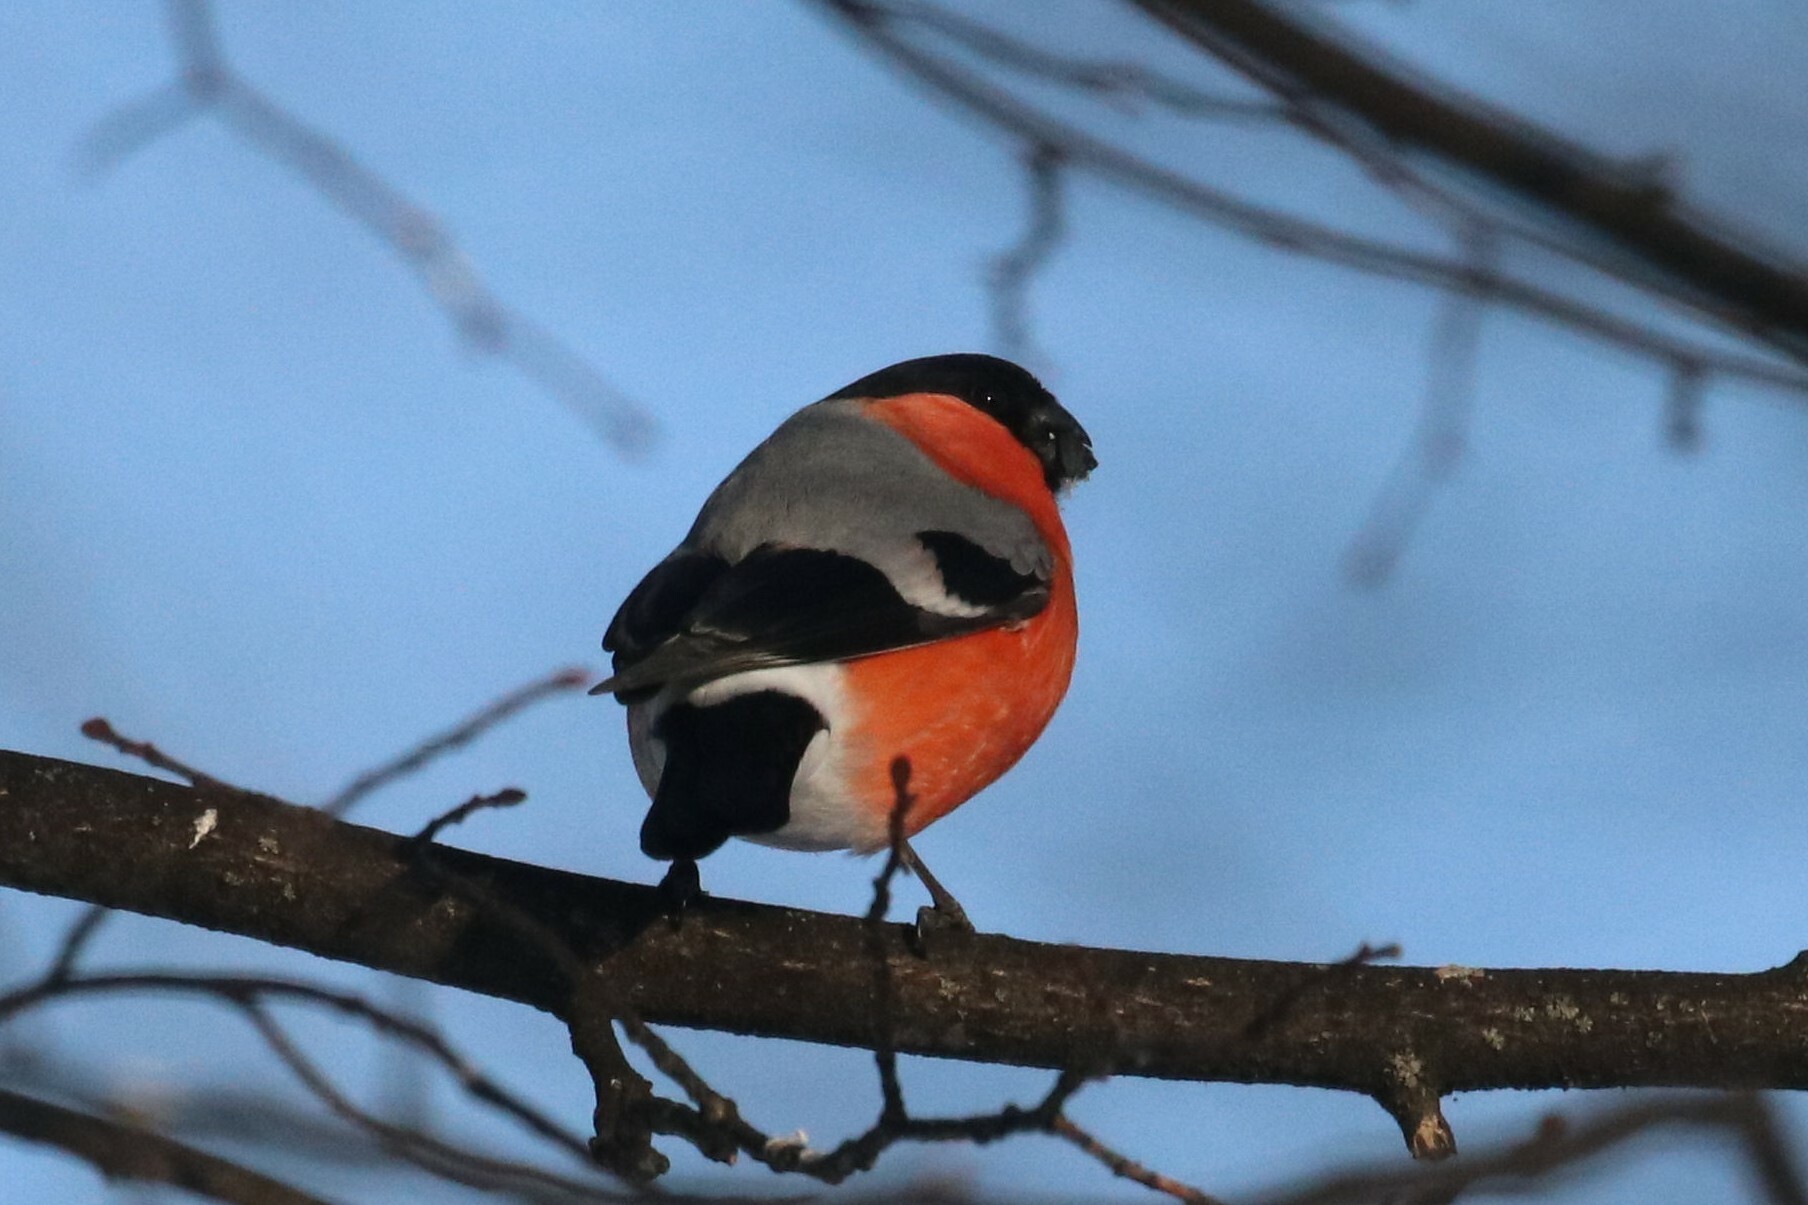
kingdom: Animalia
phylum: Chordata
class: Aves
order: Passeriformes
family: Fringillidae
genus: Pyrrhula
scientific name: Pyrrhula pyrrhula
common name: Eurasian bullfinch
